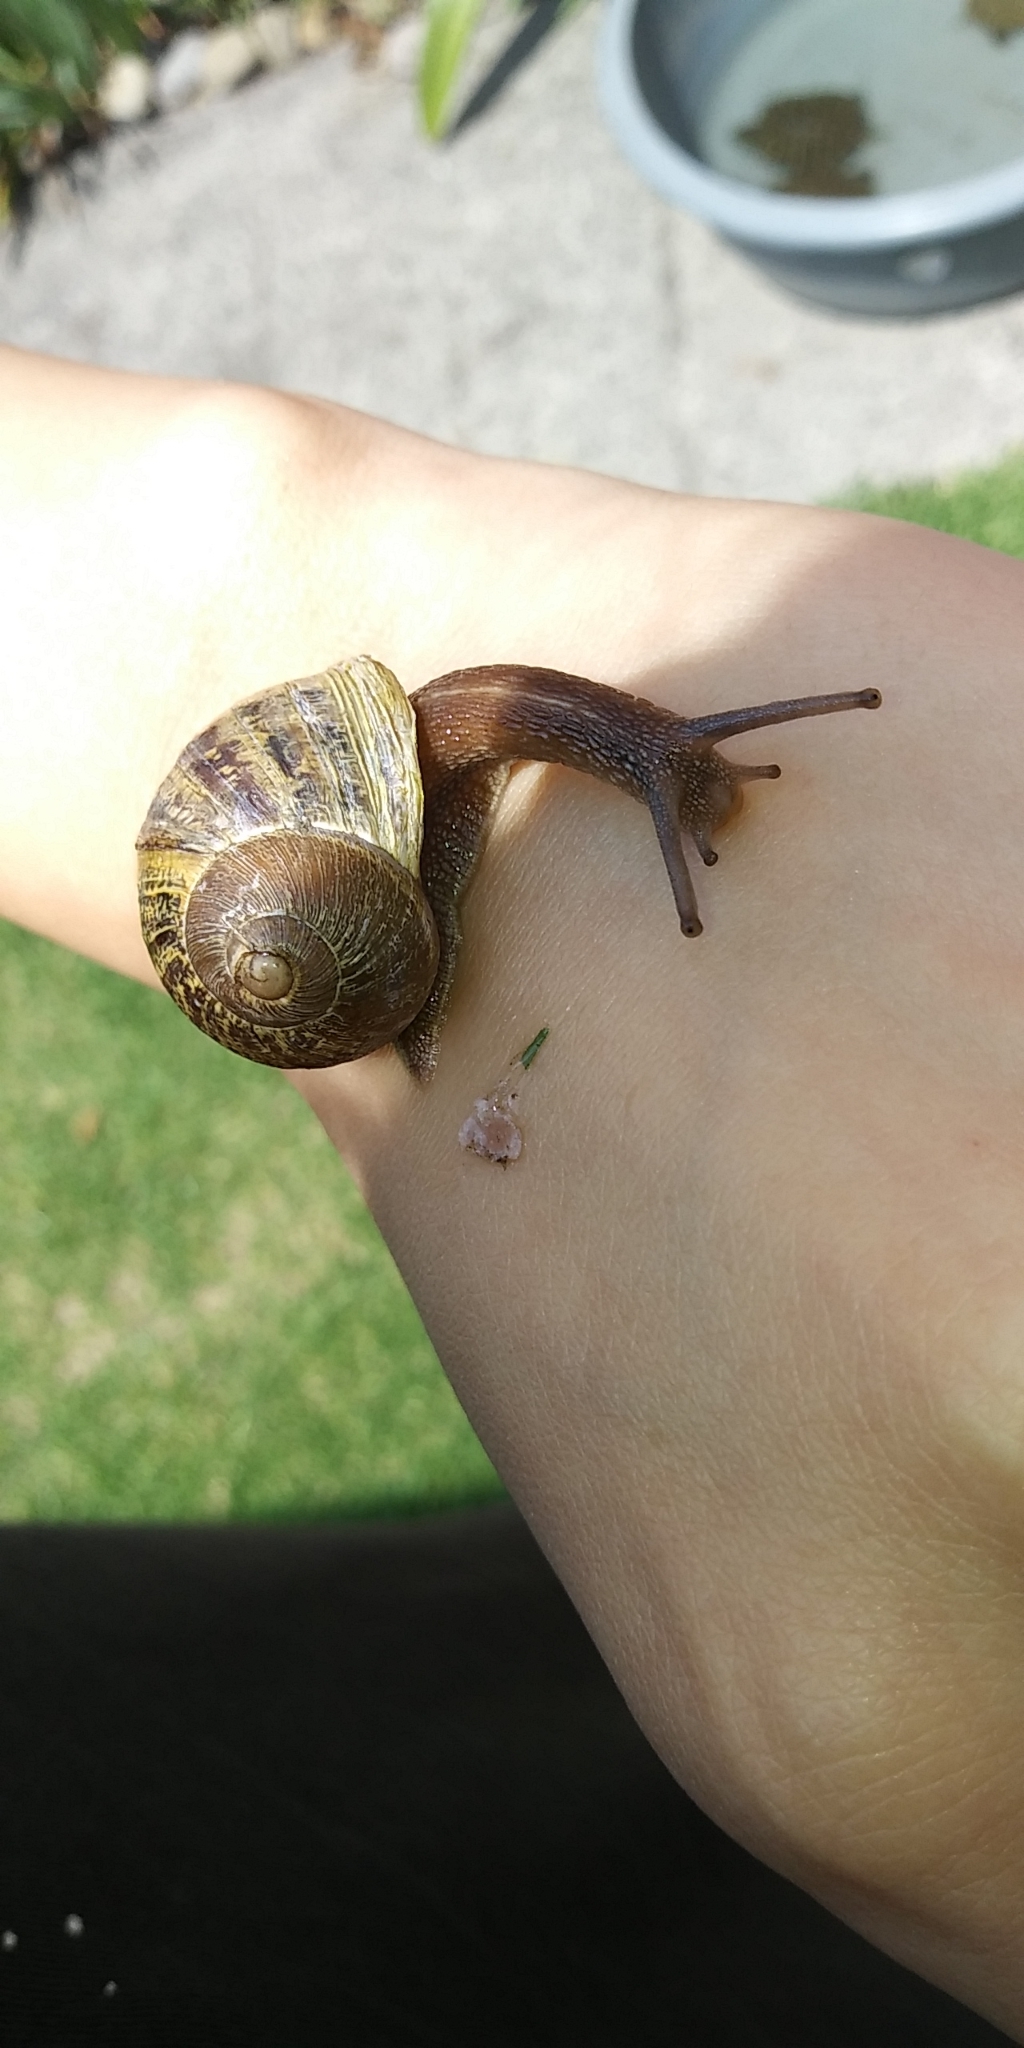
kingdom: Animalia
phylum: Mollusca
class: Gastropoda
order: Stylommatophora
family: Helicidae
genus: Cornu
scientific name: Cornu aspersum
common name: Brown garden snail
